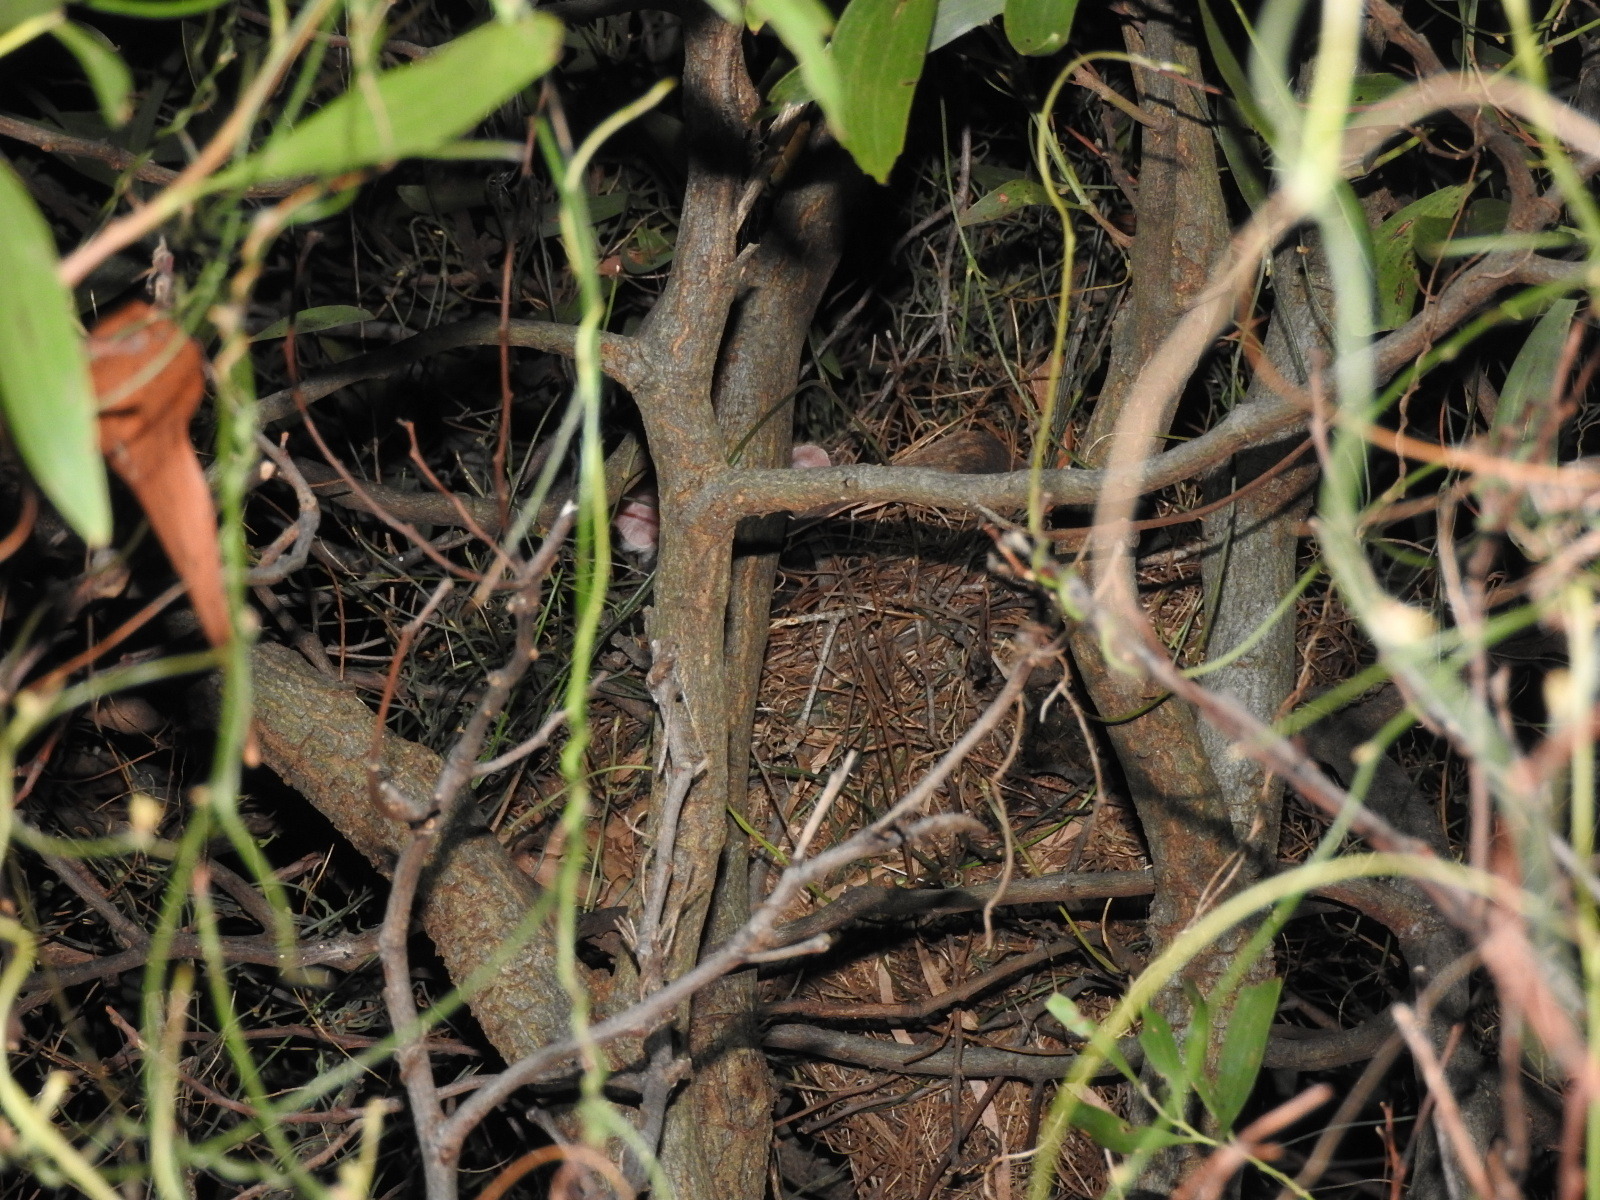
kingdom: Animalia
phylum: Chordata
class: Mammalia
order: Diprotodontia
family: Pseudocheiridae
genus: Pseudocheirus
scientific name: Pseudocheirus peregrinus
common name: Common ringtail possum
